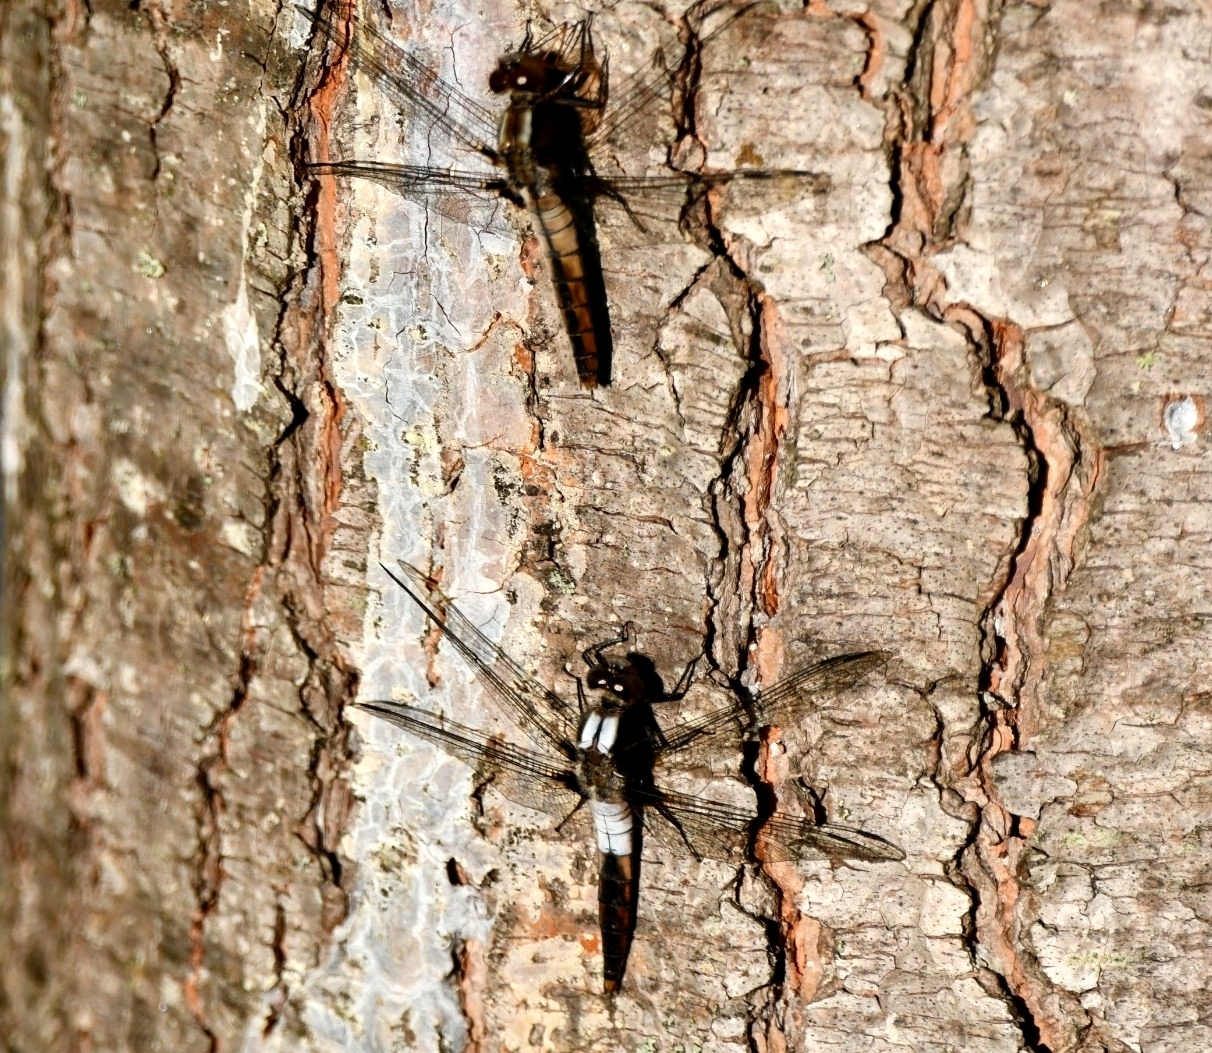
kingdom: Animalia
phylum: Arthropoda
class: Insecta
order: Odonata
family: Libellulidae
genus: Ladona
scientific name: Ladona julia
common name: Chalk-fronted corporal
